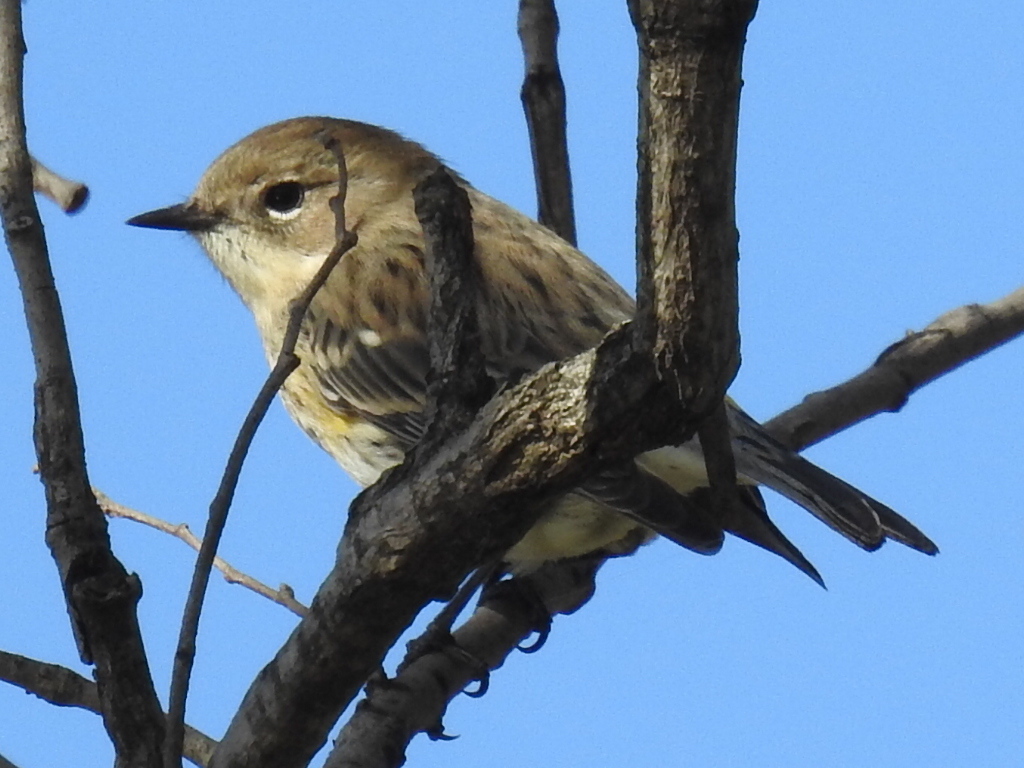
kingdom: Animalia
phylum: Chordata
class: Aves
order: Passeriformes
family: Parulidae
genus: Setophaga
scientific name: Setophaga coronata
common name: Myrtle warbler
